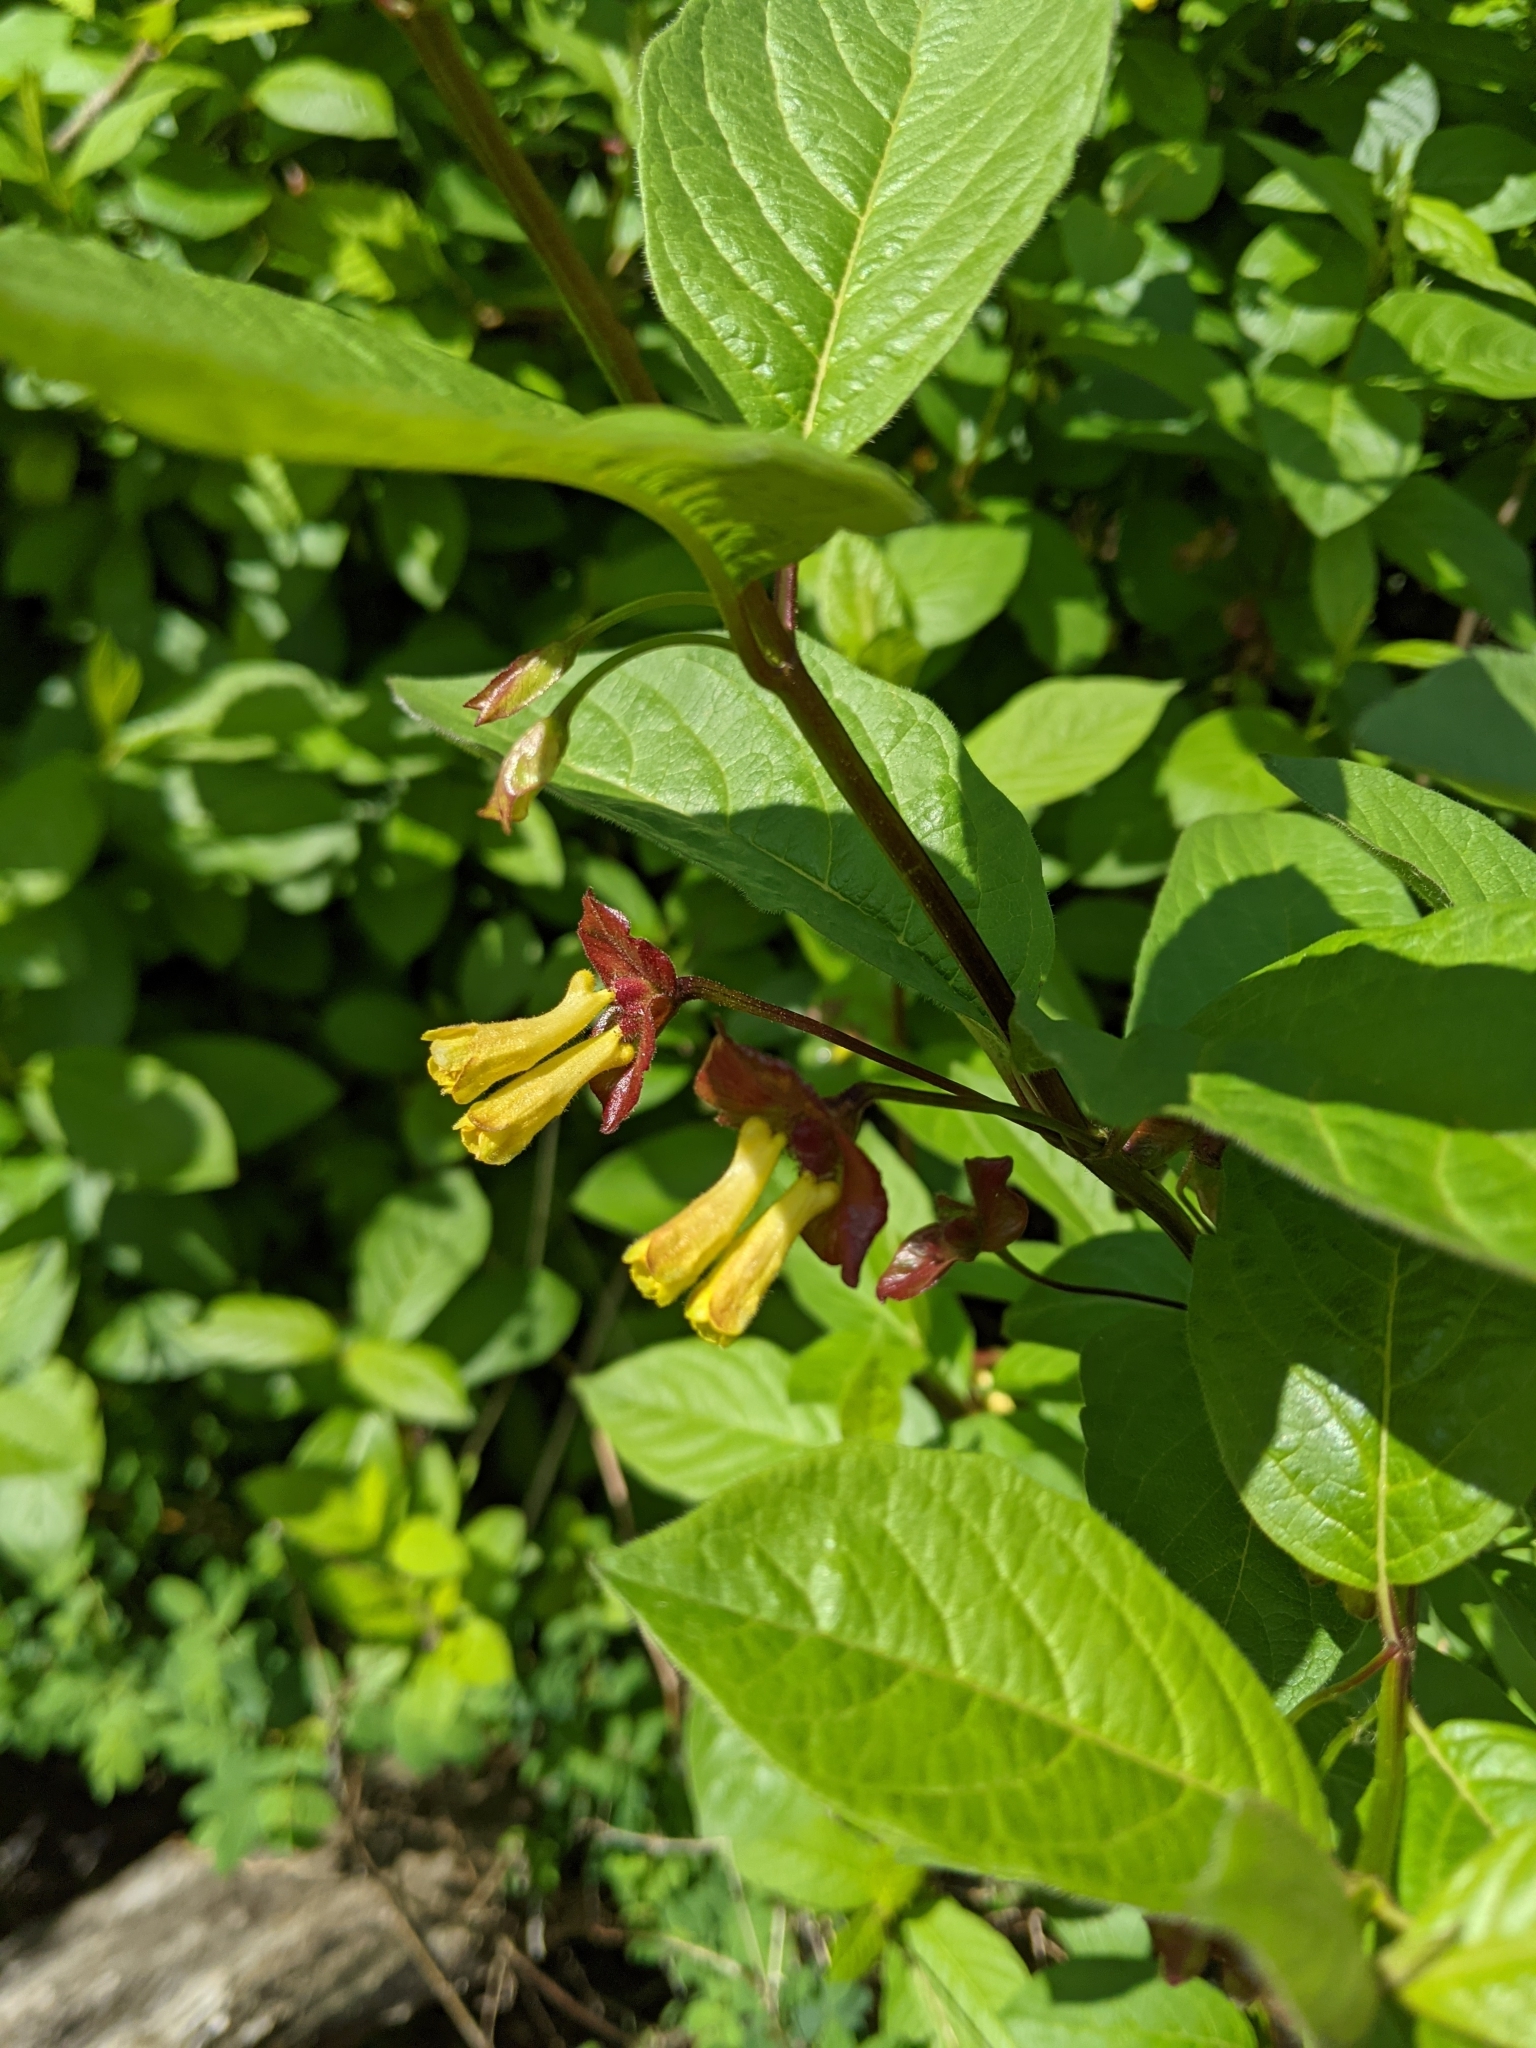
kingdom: Plantae
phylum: Tracheophyta
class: Magnoliopsida
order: Dipsacales
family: Caprifoliaceae
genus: Lonicera
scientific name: Lonicera involucrata
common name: Californian honeysuckle
